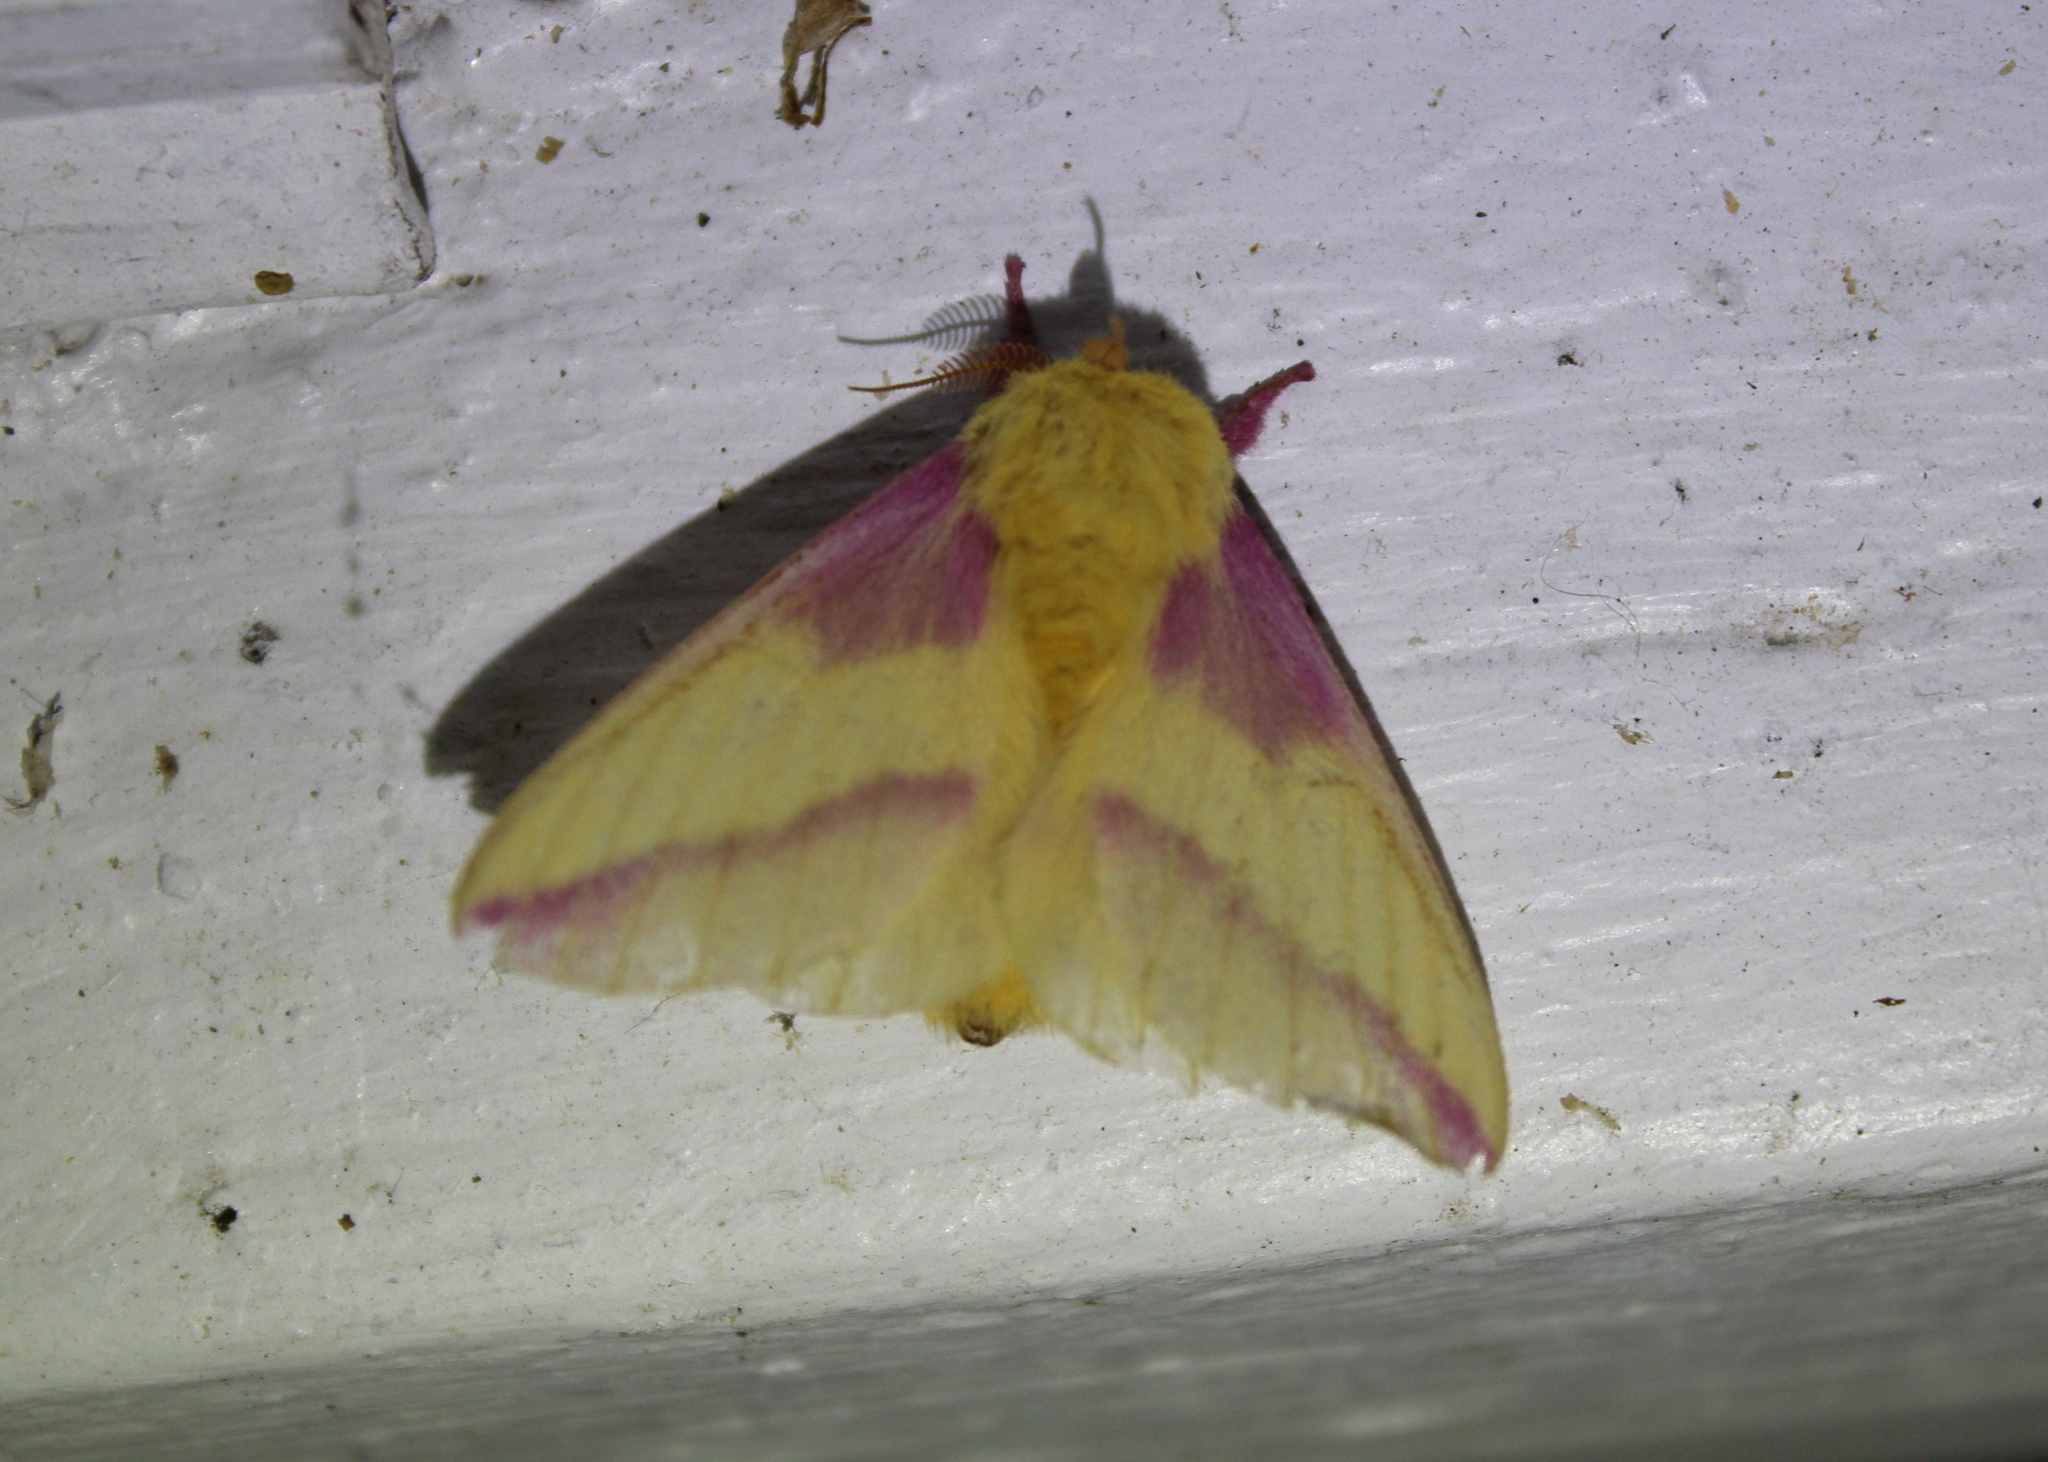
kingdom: Animalia
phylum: Arthropoda
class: Insecta
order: Lepidoptera
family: Saturniidae
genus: Dryocampa
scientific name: Dryocampa rubicunda
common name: Rosy maple moth
